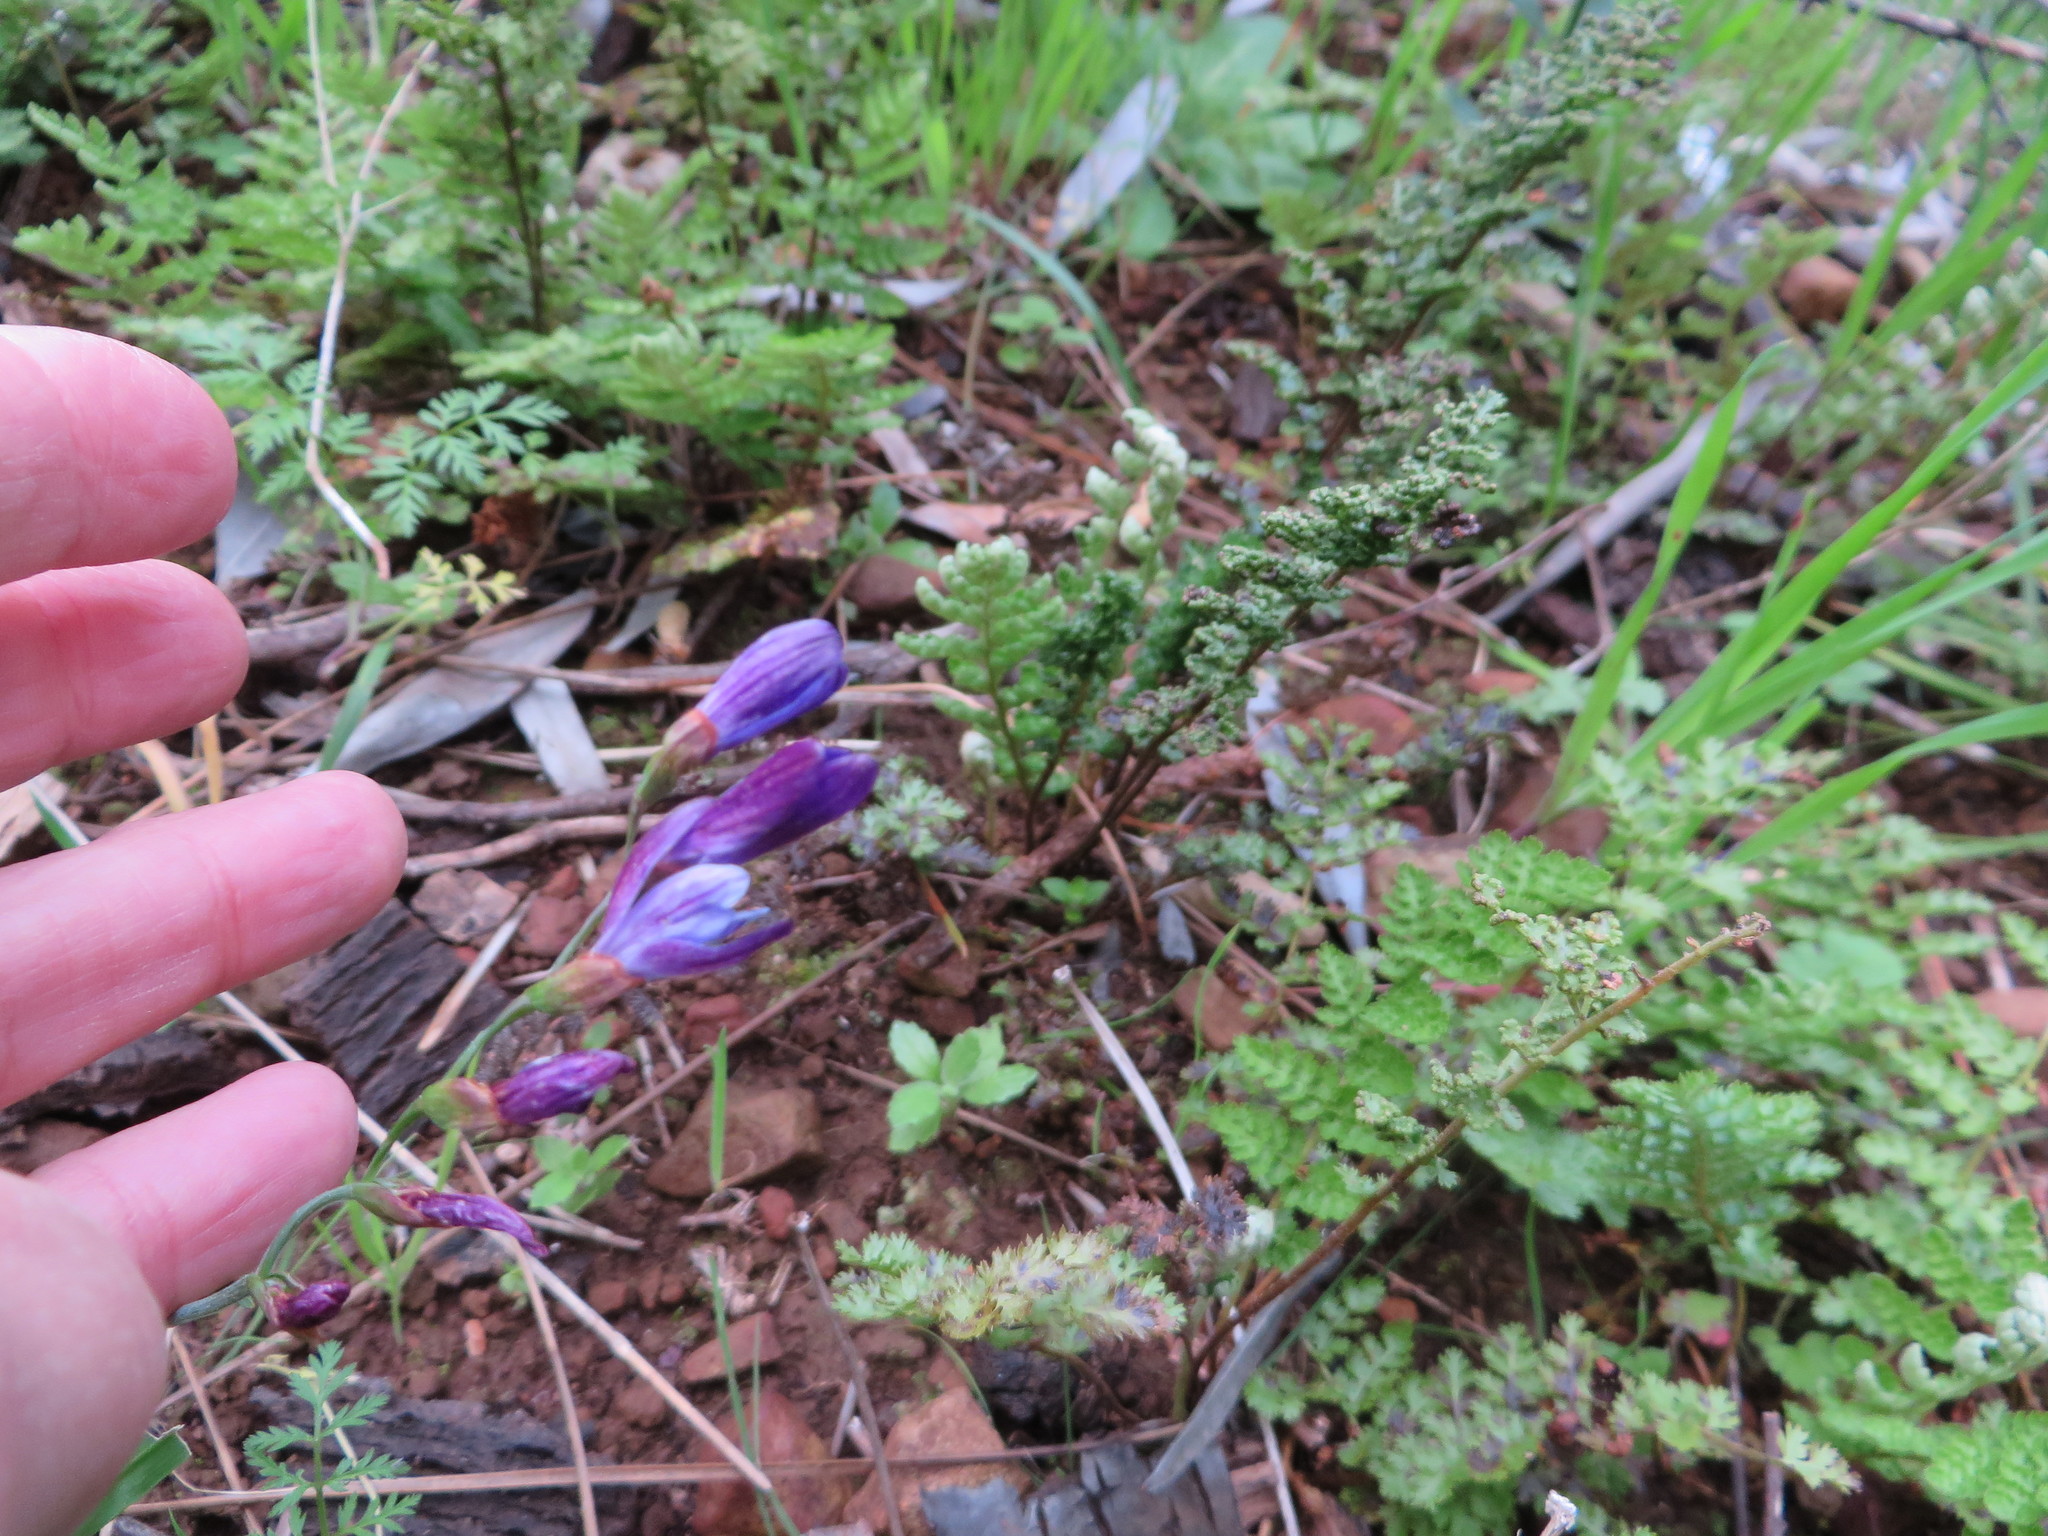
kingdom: Plantae
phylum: Tracheophyta
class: Liliopsida
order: Asparagales
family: Iridaceae
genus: Geissorhiza
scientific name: Geissorhiza aspera
